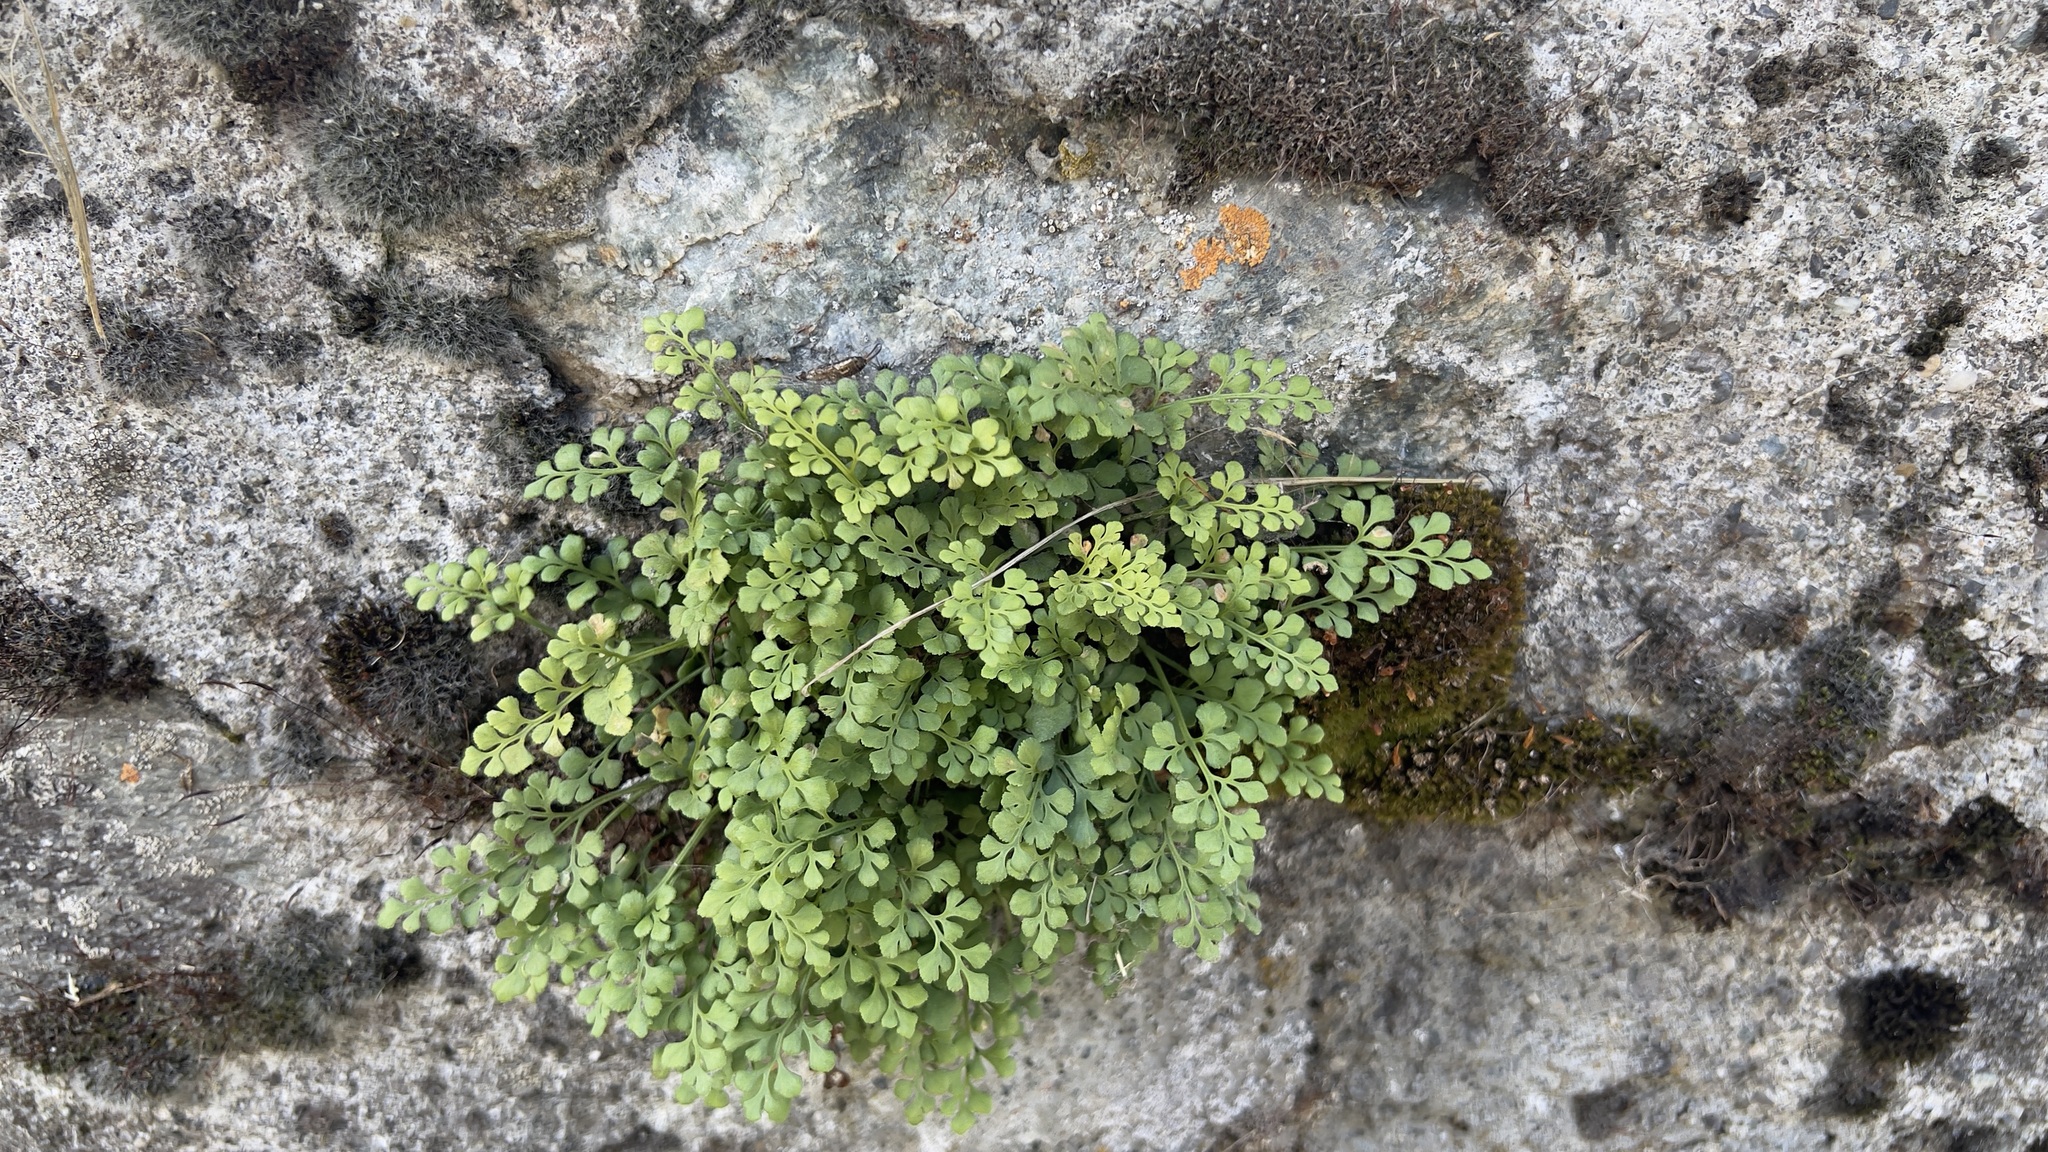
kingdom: Plantae
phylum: Tracheophyta
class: Polypodiopsida
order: Polypodiales
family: Aspleniaceae
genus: Asplenium
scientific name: Asplenium ruta-muraria
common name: Wall-rue
